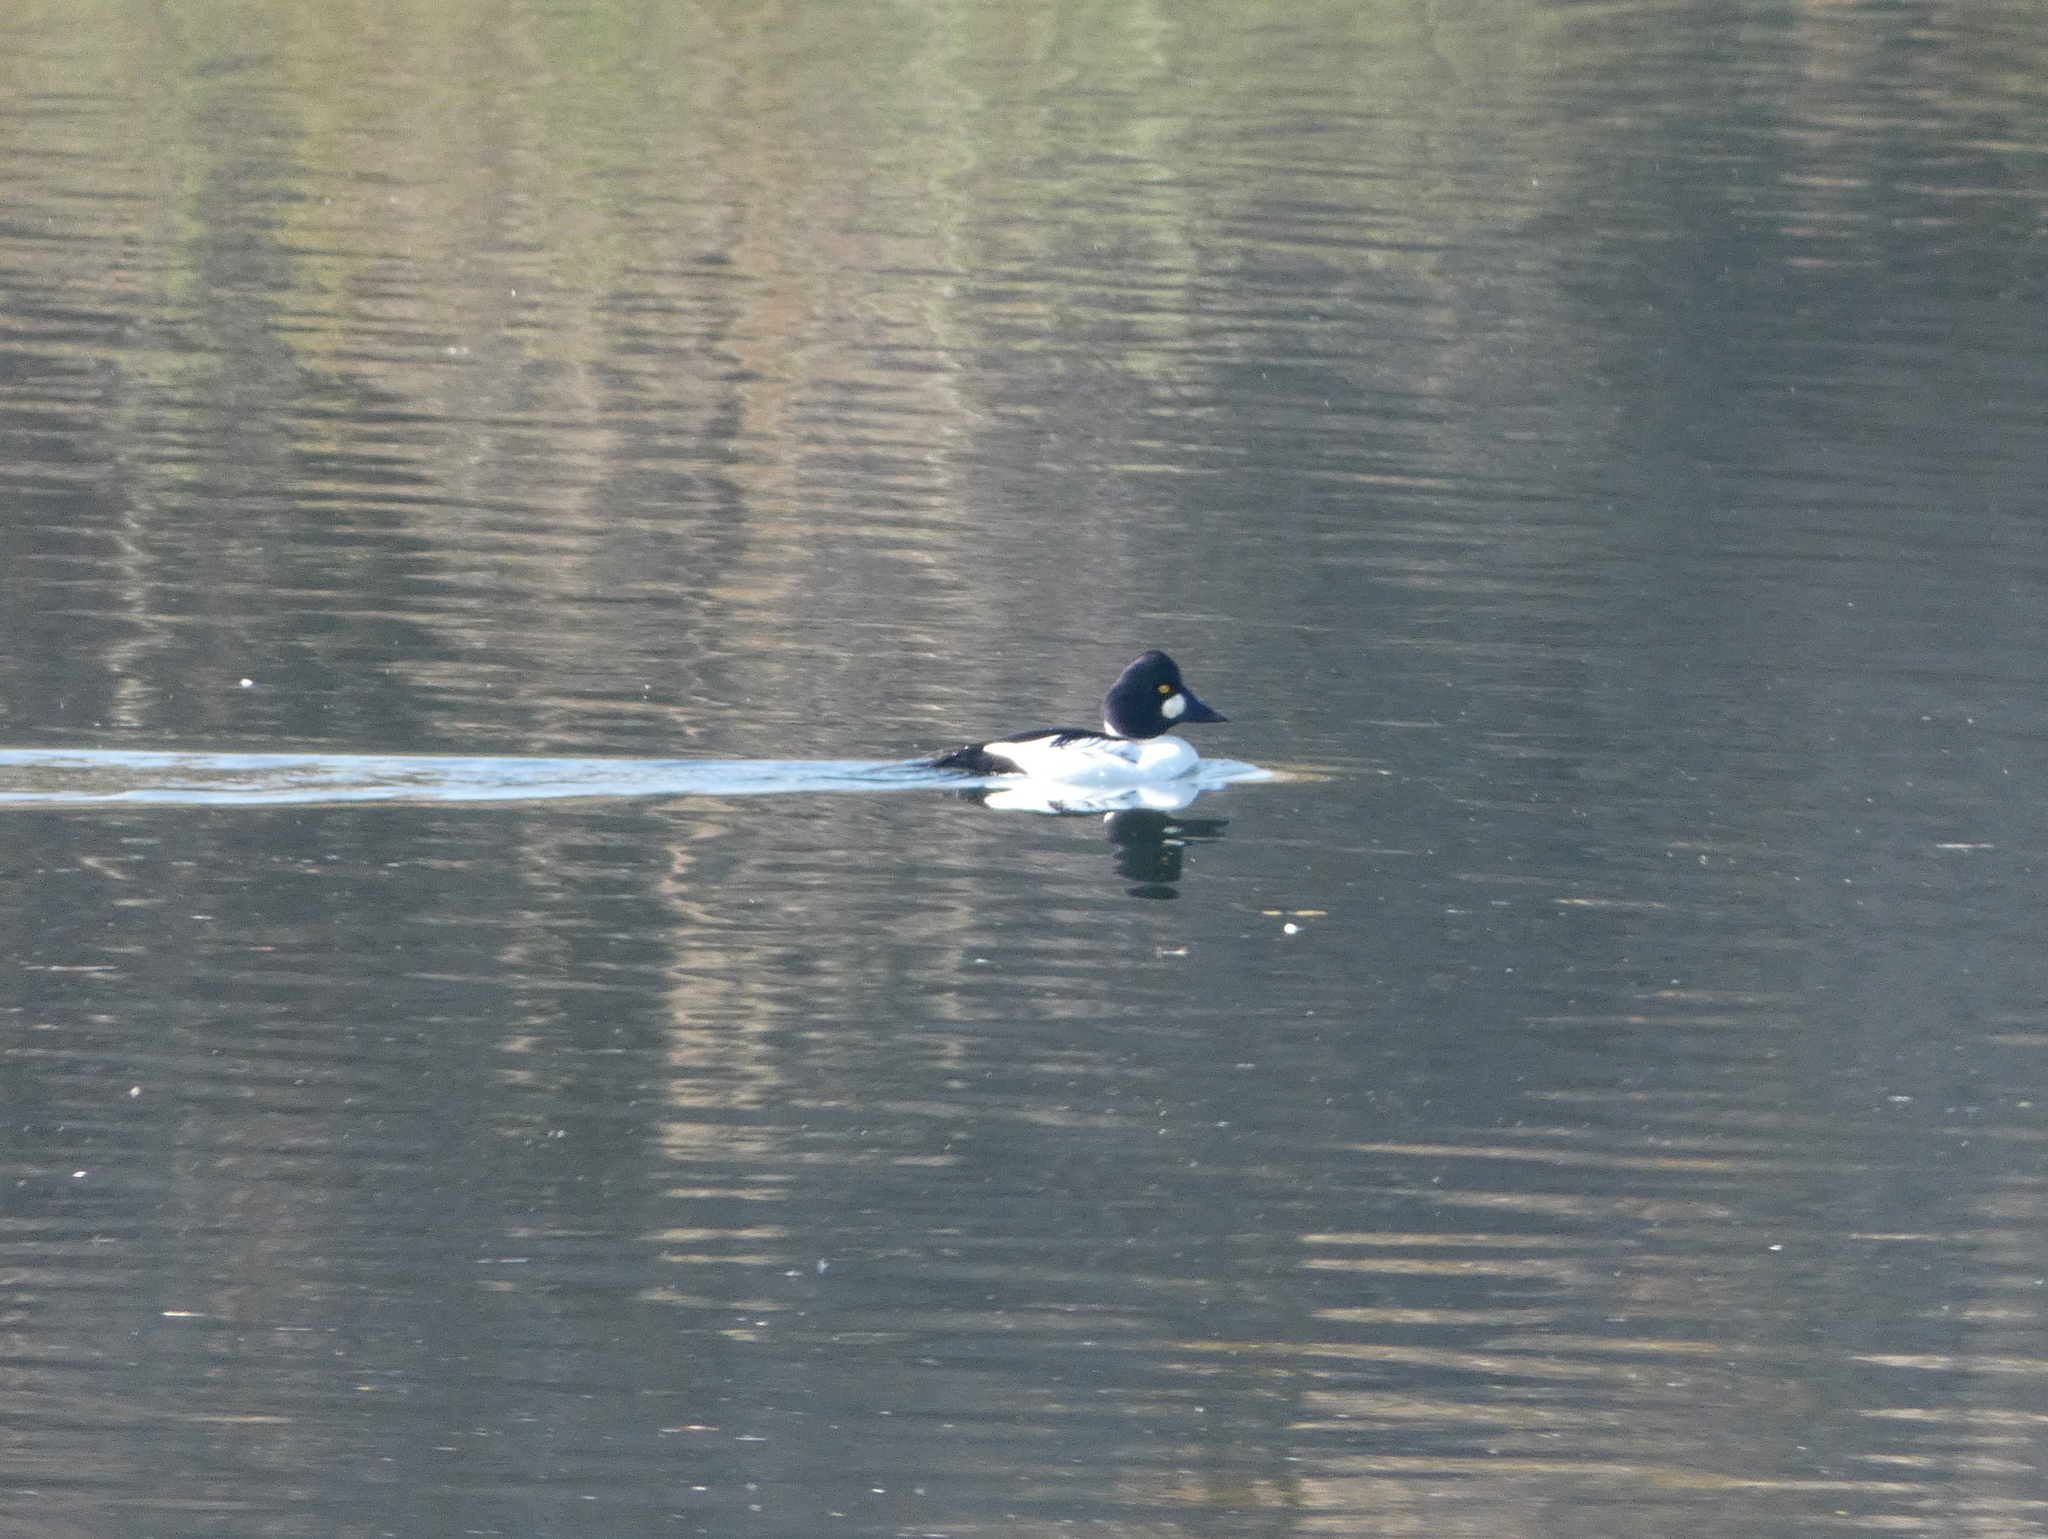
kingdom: Animalia
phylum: Chordata
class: Aves
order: Anseriformes
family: Anatidae
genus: Bucephala
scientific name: Bucephala clangula
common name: Common goldeneye
